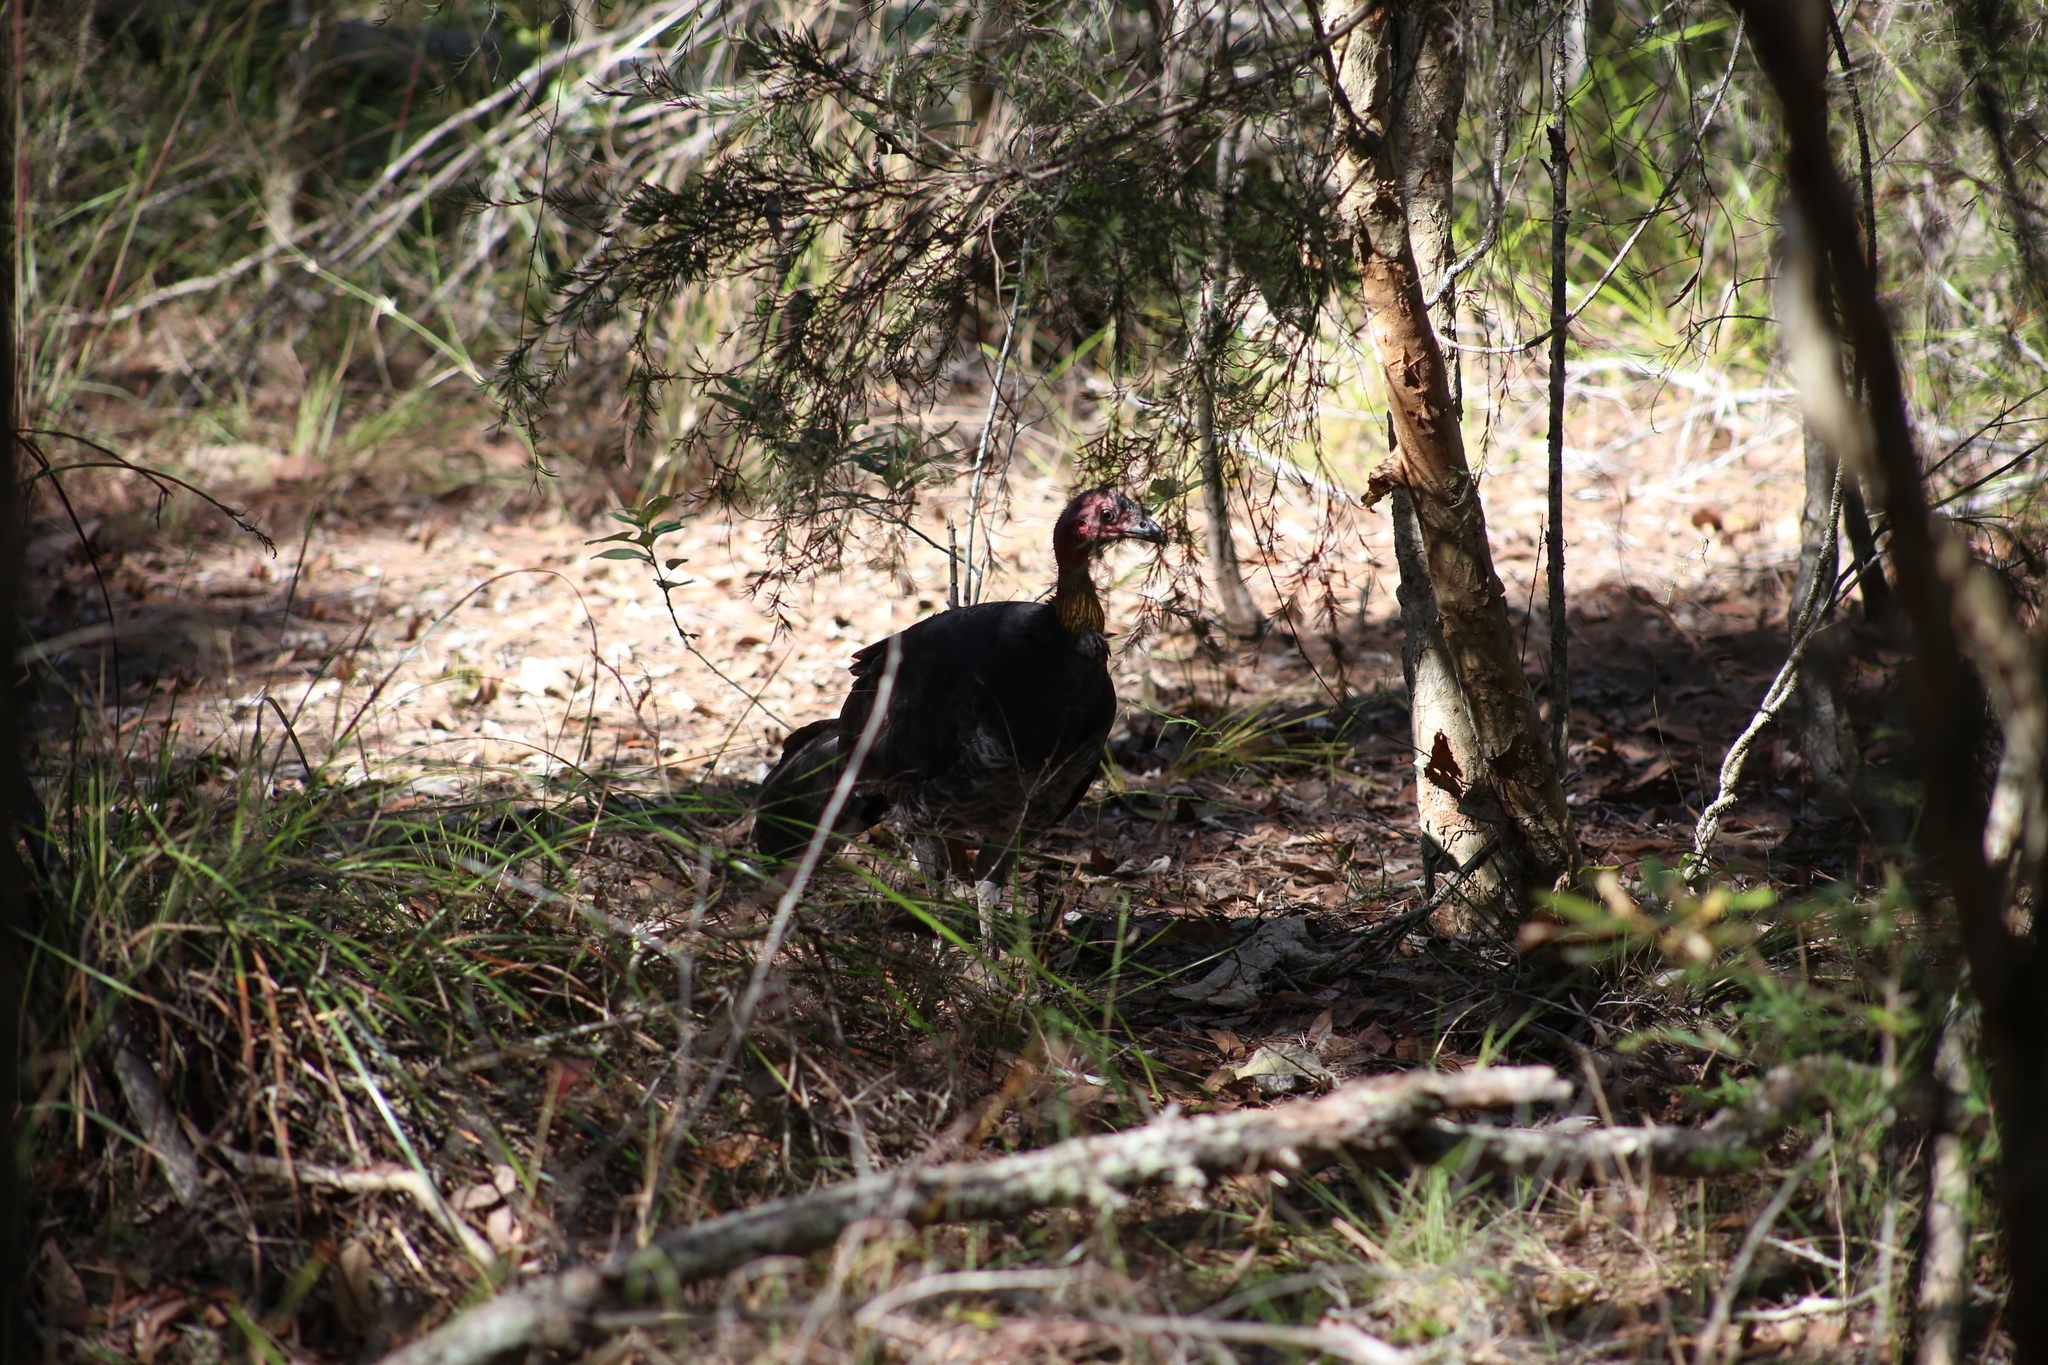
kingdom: Animalia
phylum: Chordata
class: Aves
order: Galliformes
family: Megapodiidae
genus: Alectura
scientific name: Alectura lathami
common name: Australian brushturkey
